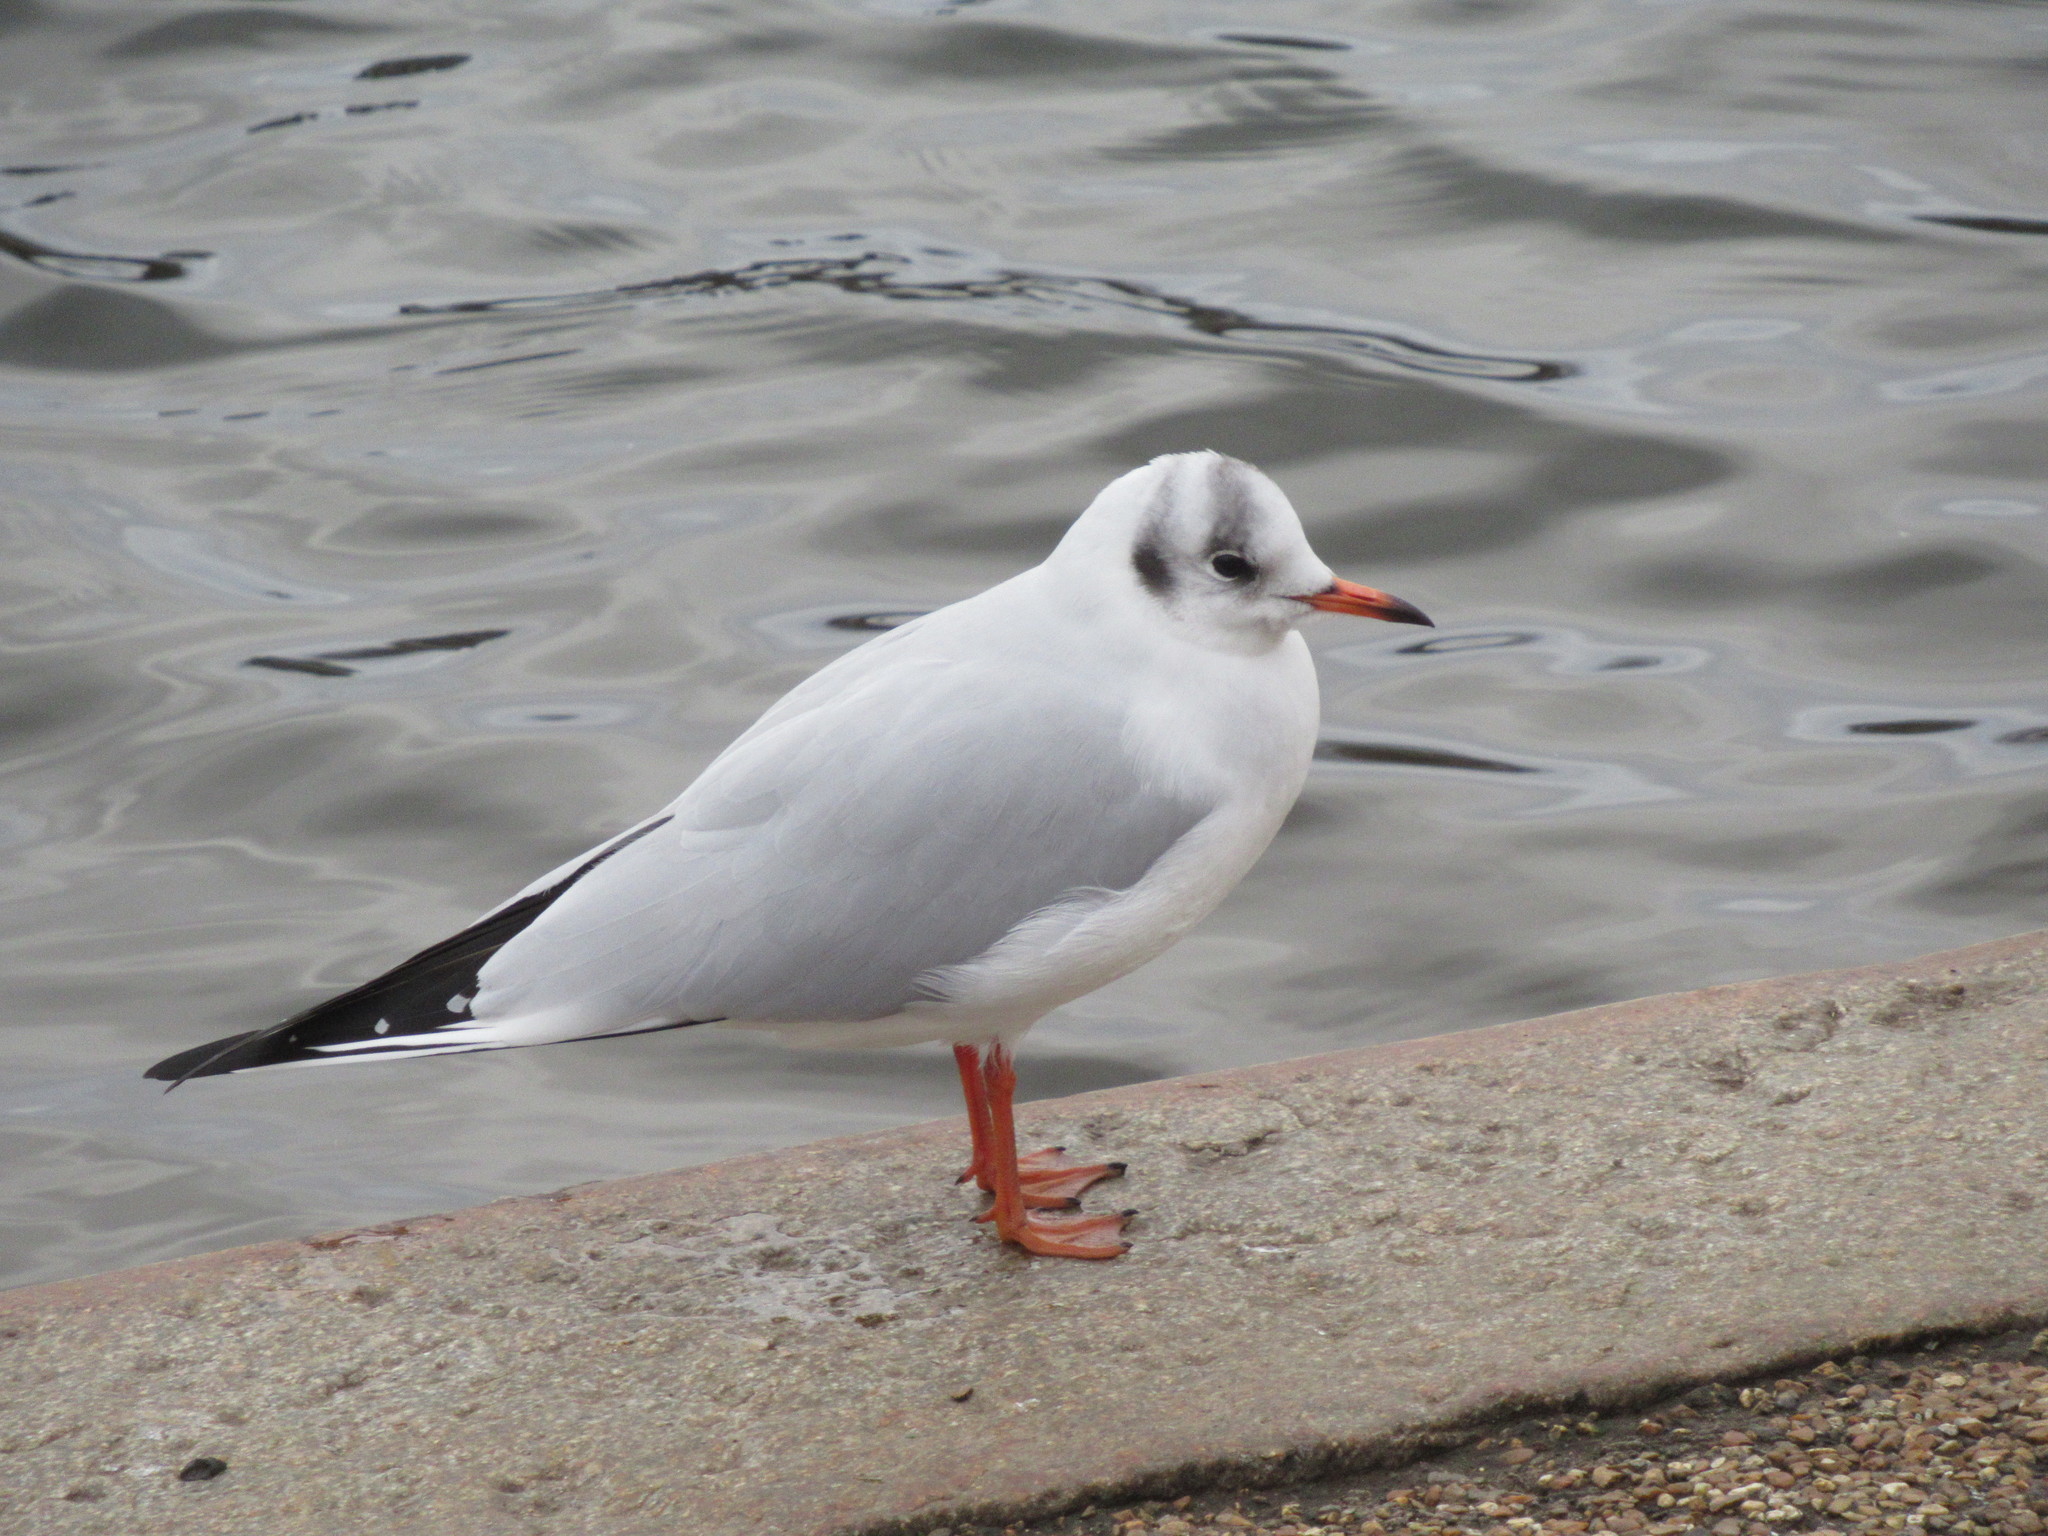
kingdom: Animalia
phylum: Chordata
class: Aves
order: Charadriiformes
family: Laridae
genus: Chroicocephalus
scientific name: Chroicocephalus ridibundus
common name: Black-headed gull
